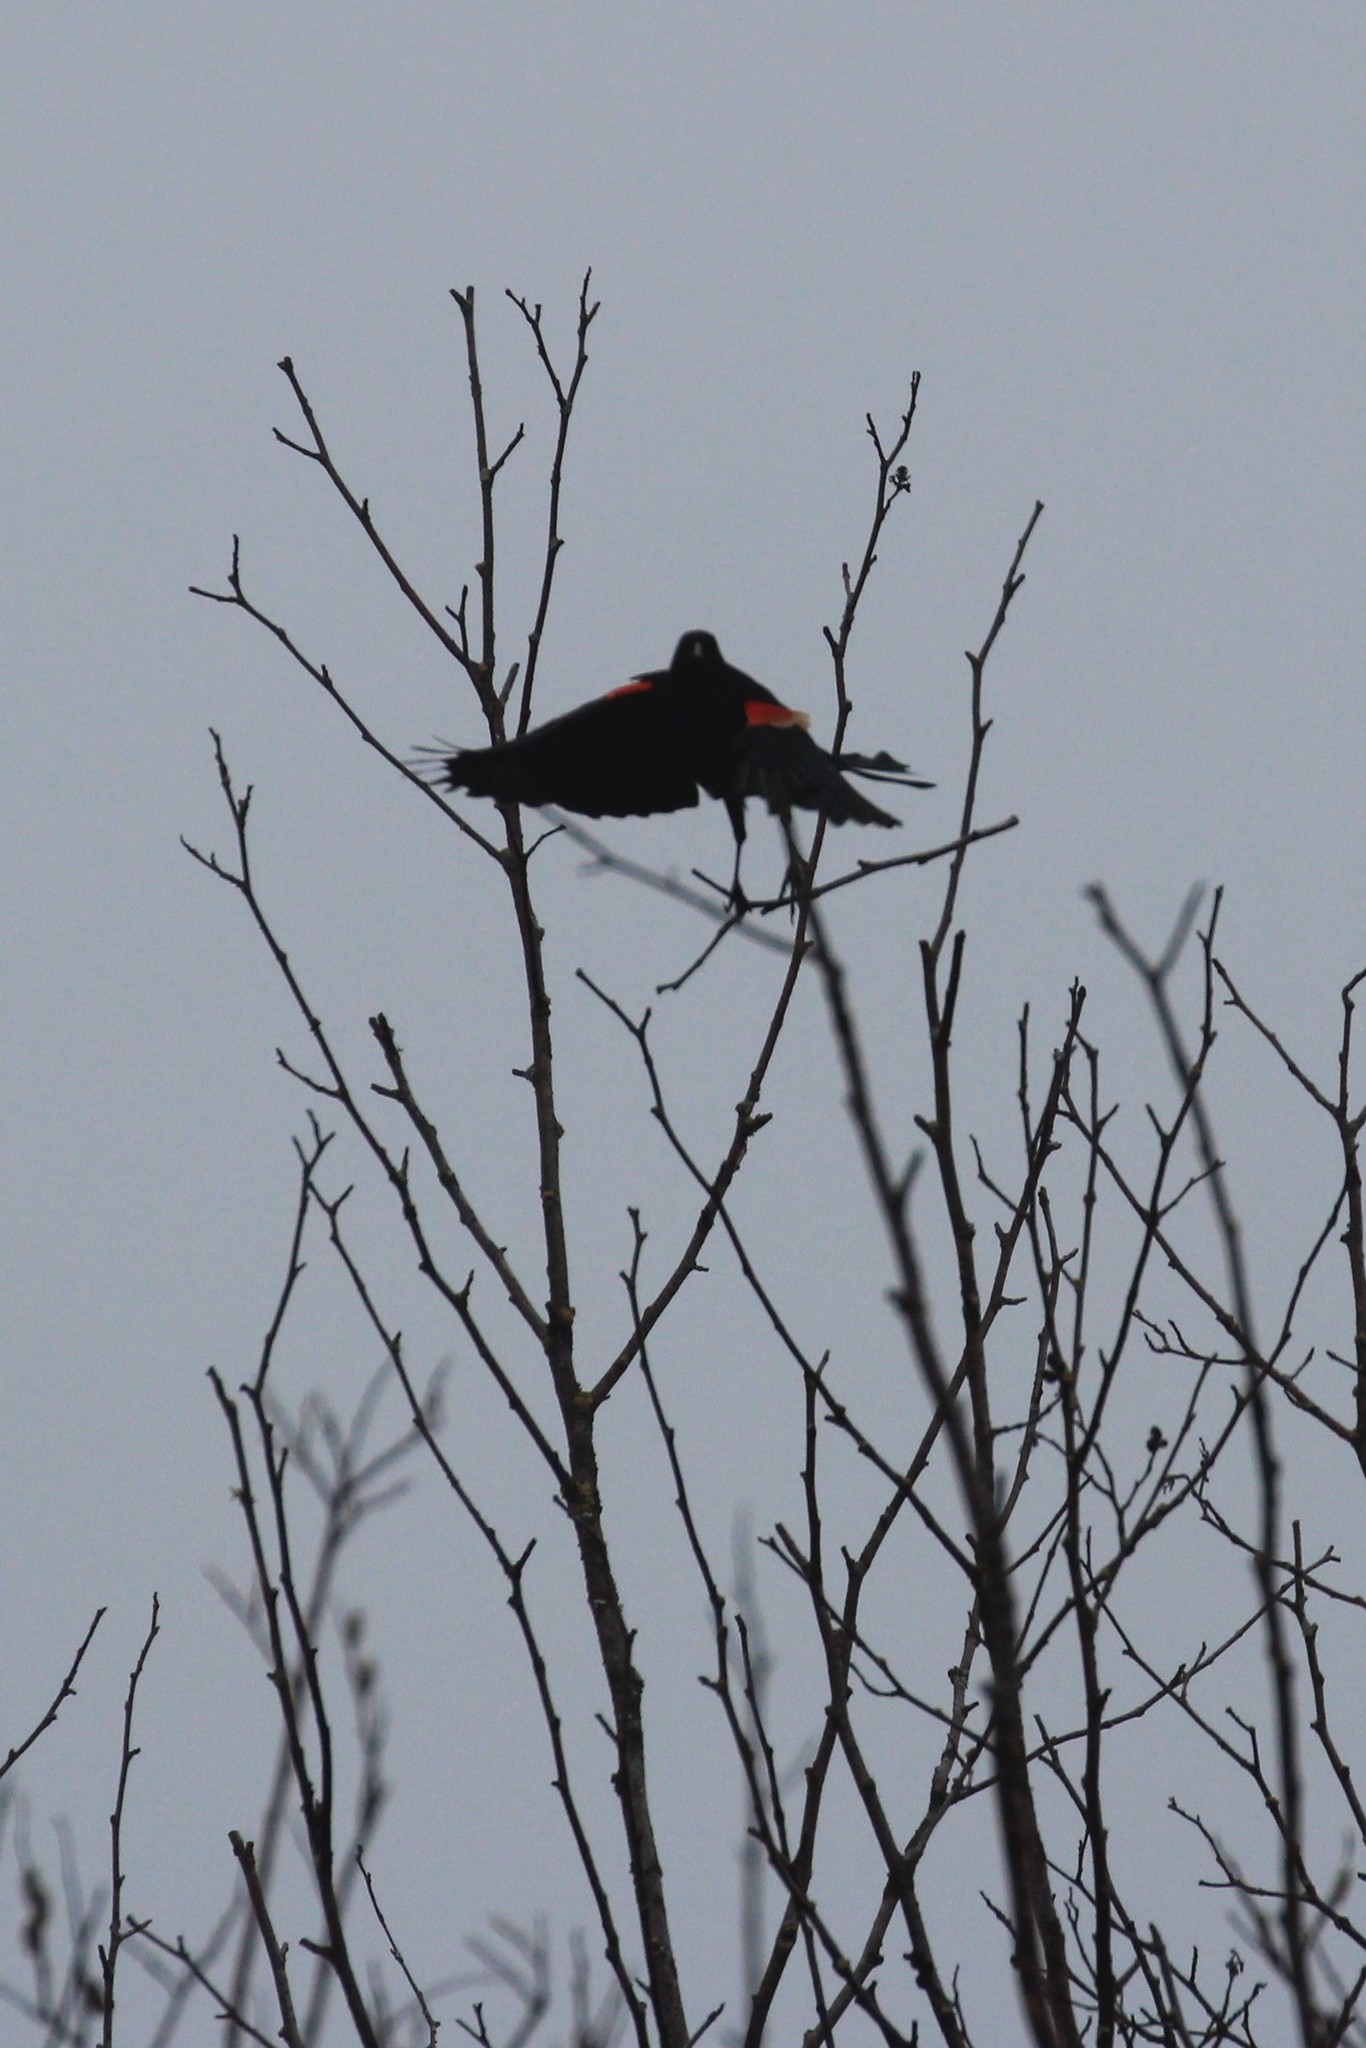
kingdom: Animalia
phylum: Chordata
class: Aves
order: Passeriformes
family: Icteridae
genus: Agelaius
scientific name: Agelaius phoeniceus
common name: Red-winged blackbird
